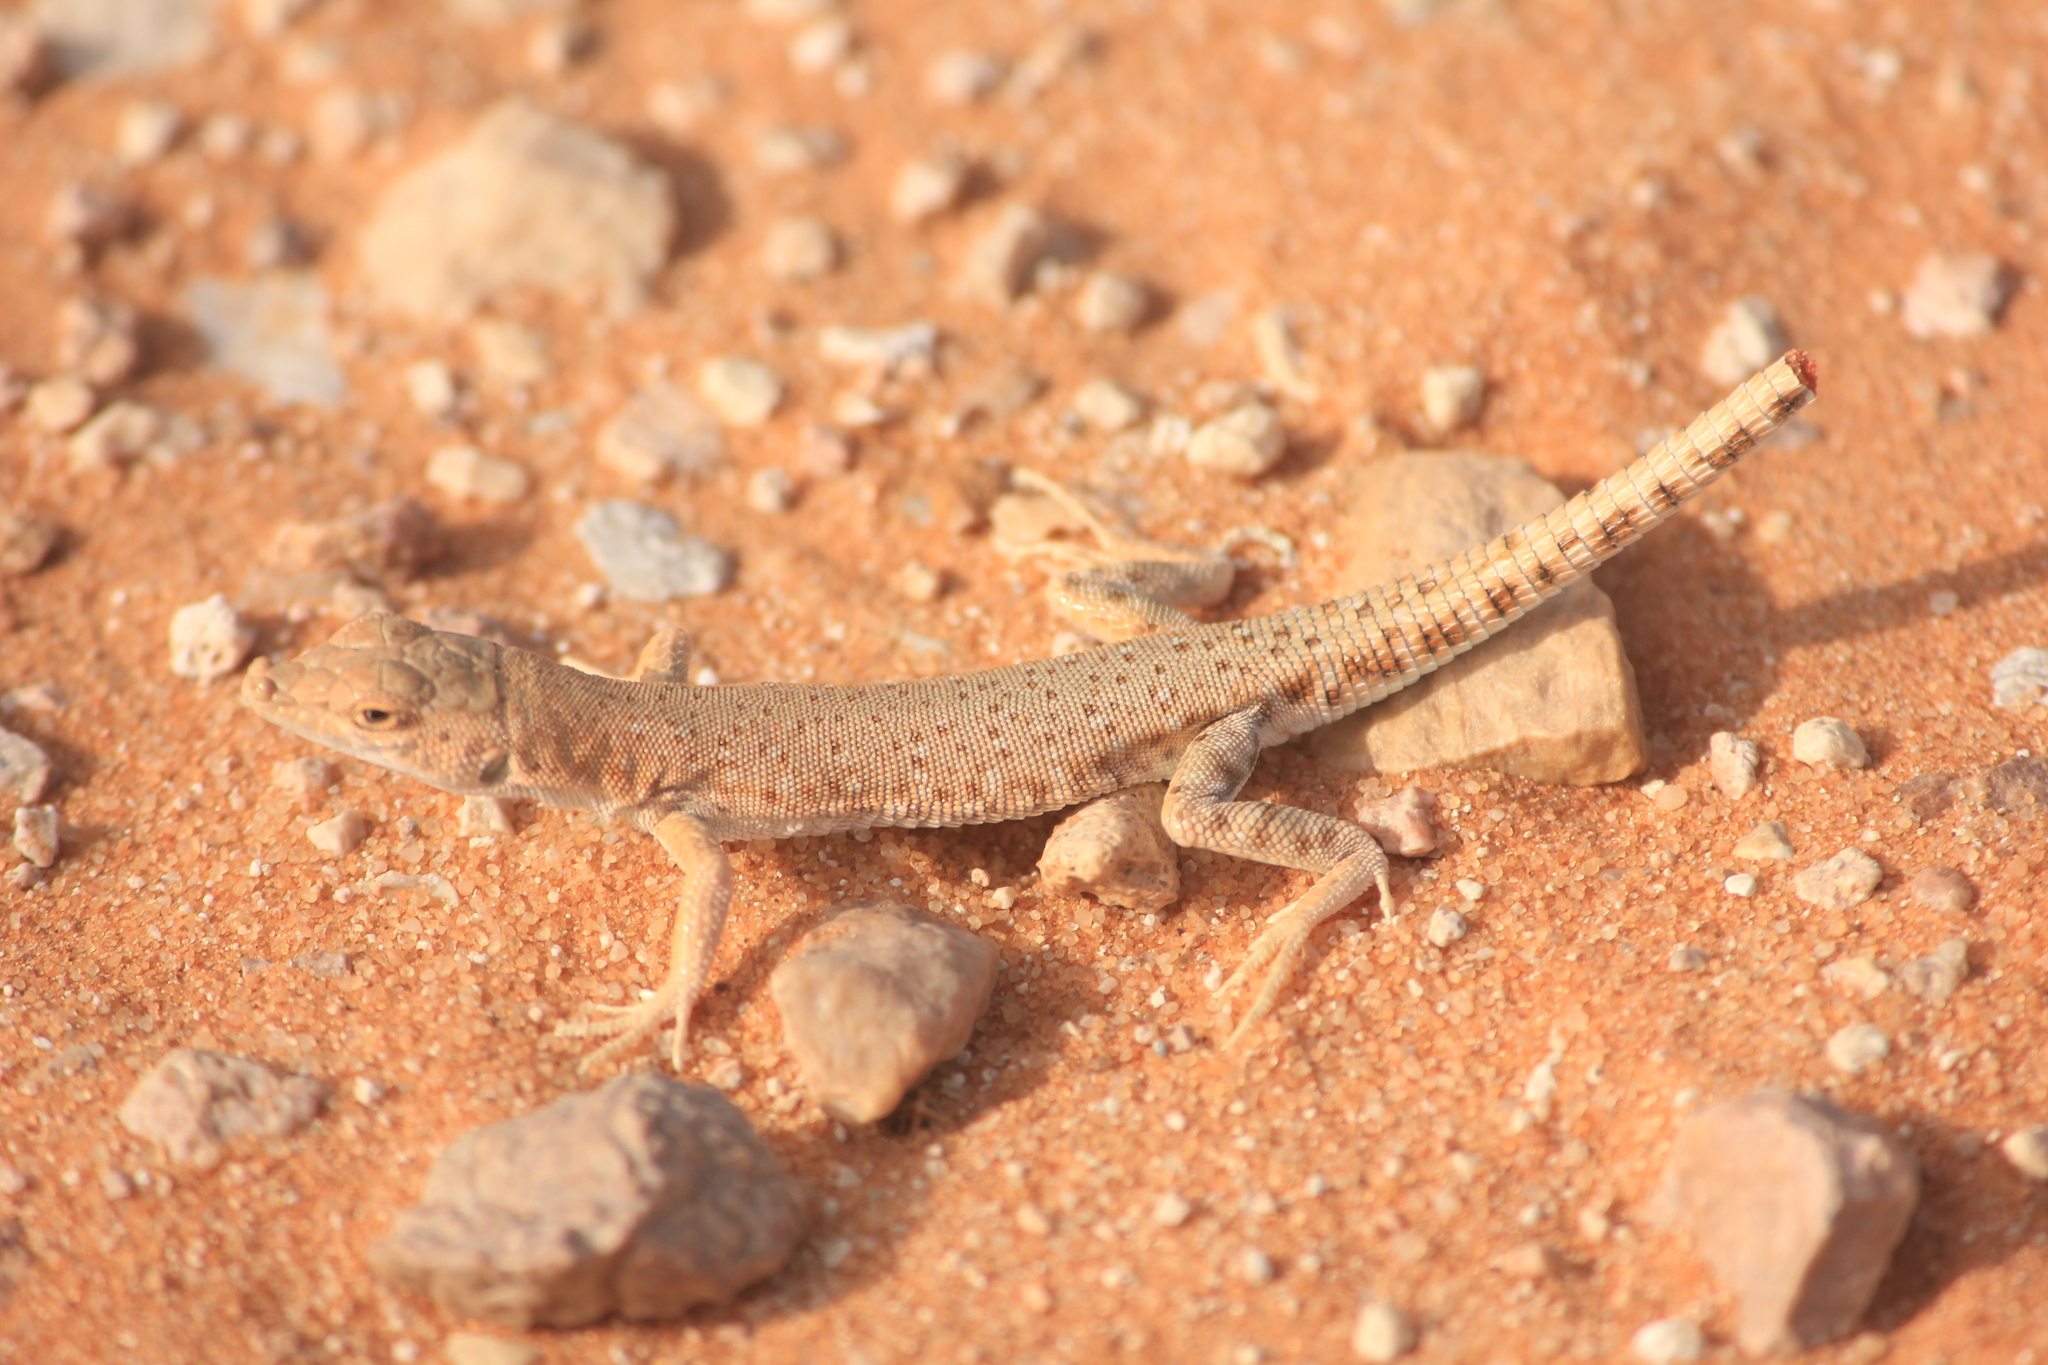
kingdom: Animalia
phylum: Chordata
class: Squamata
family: Lacertidae
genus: Mesalina
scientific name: Mesalina brevirostris
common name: Blanford's short-nosed desert lizard
